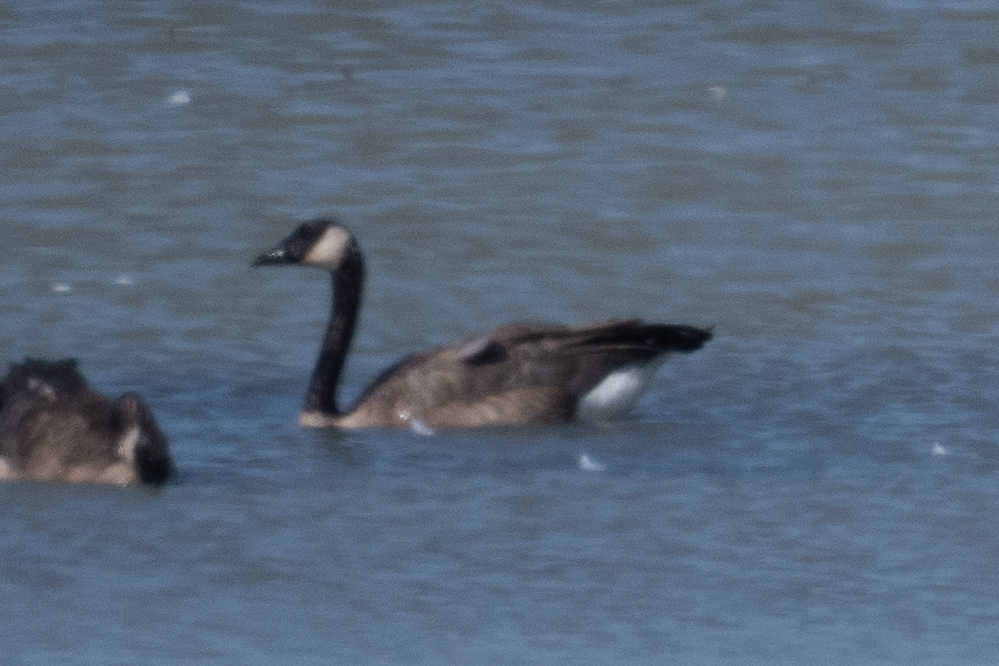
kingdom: Animalia
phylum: Chordata
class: Aves
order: Anseriformes
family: Anatidae
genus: Branta
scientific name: Branta canadensis
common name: Canada goose
